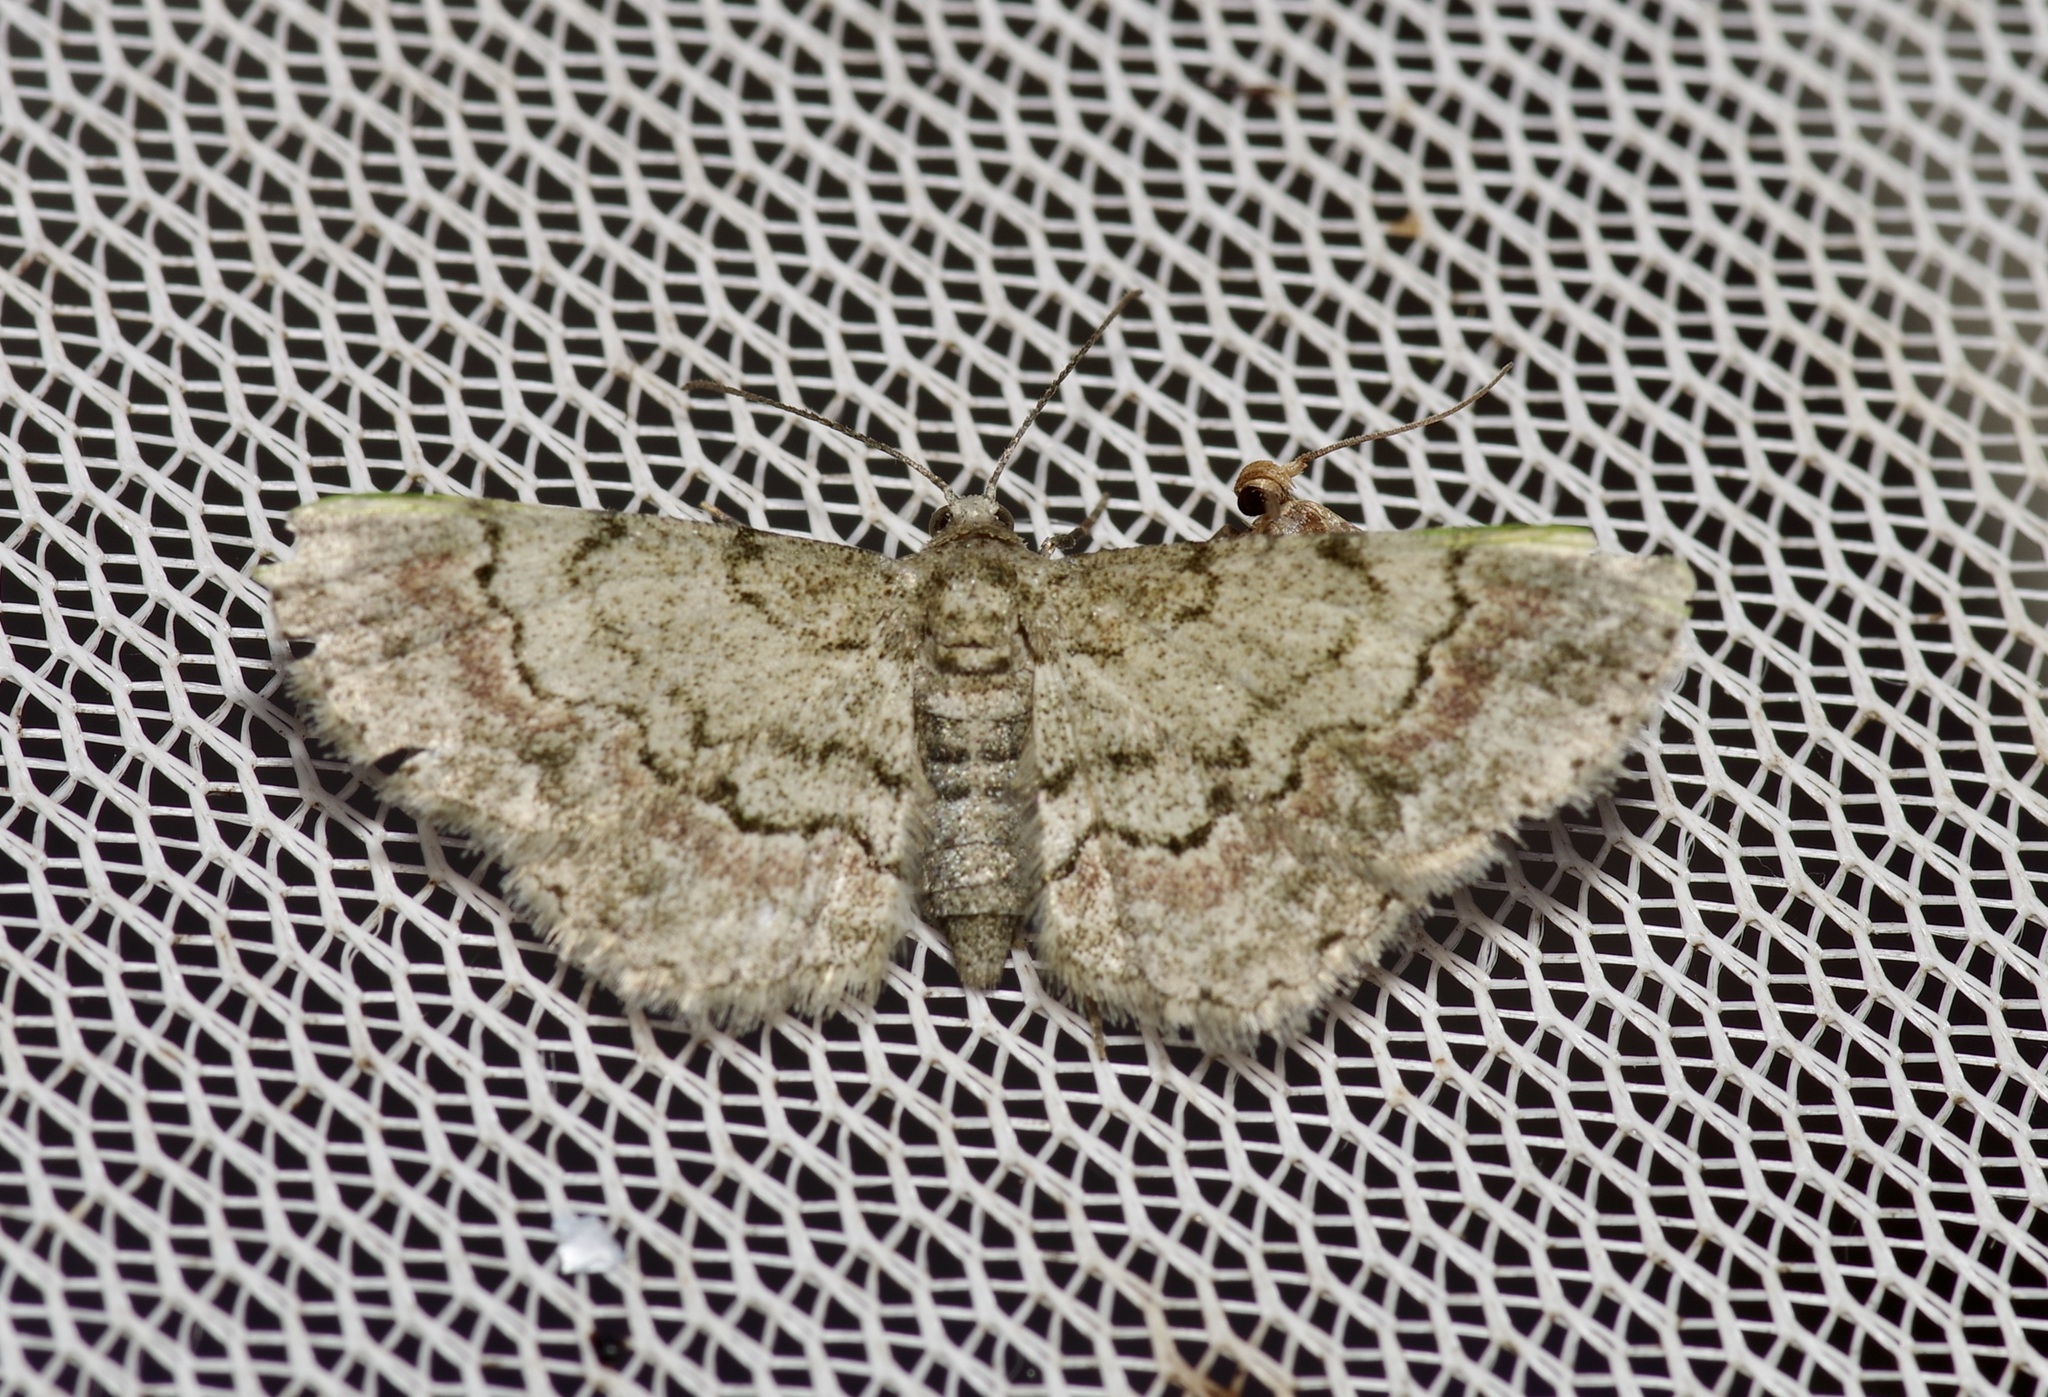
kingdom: Animalia
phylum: Arthropoda
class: Insecta
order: Lepidoptera
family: Geometridae
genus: Glenoides
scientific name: Glenoides texanaria
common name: Texas gray
